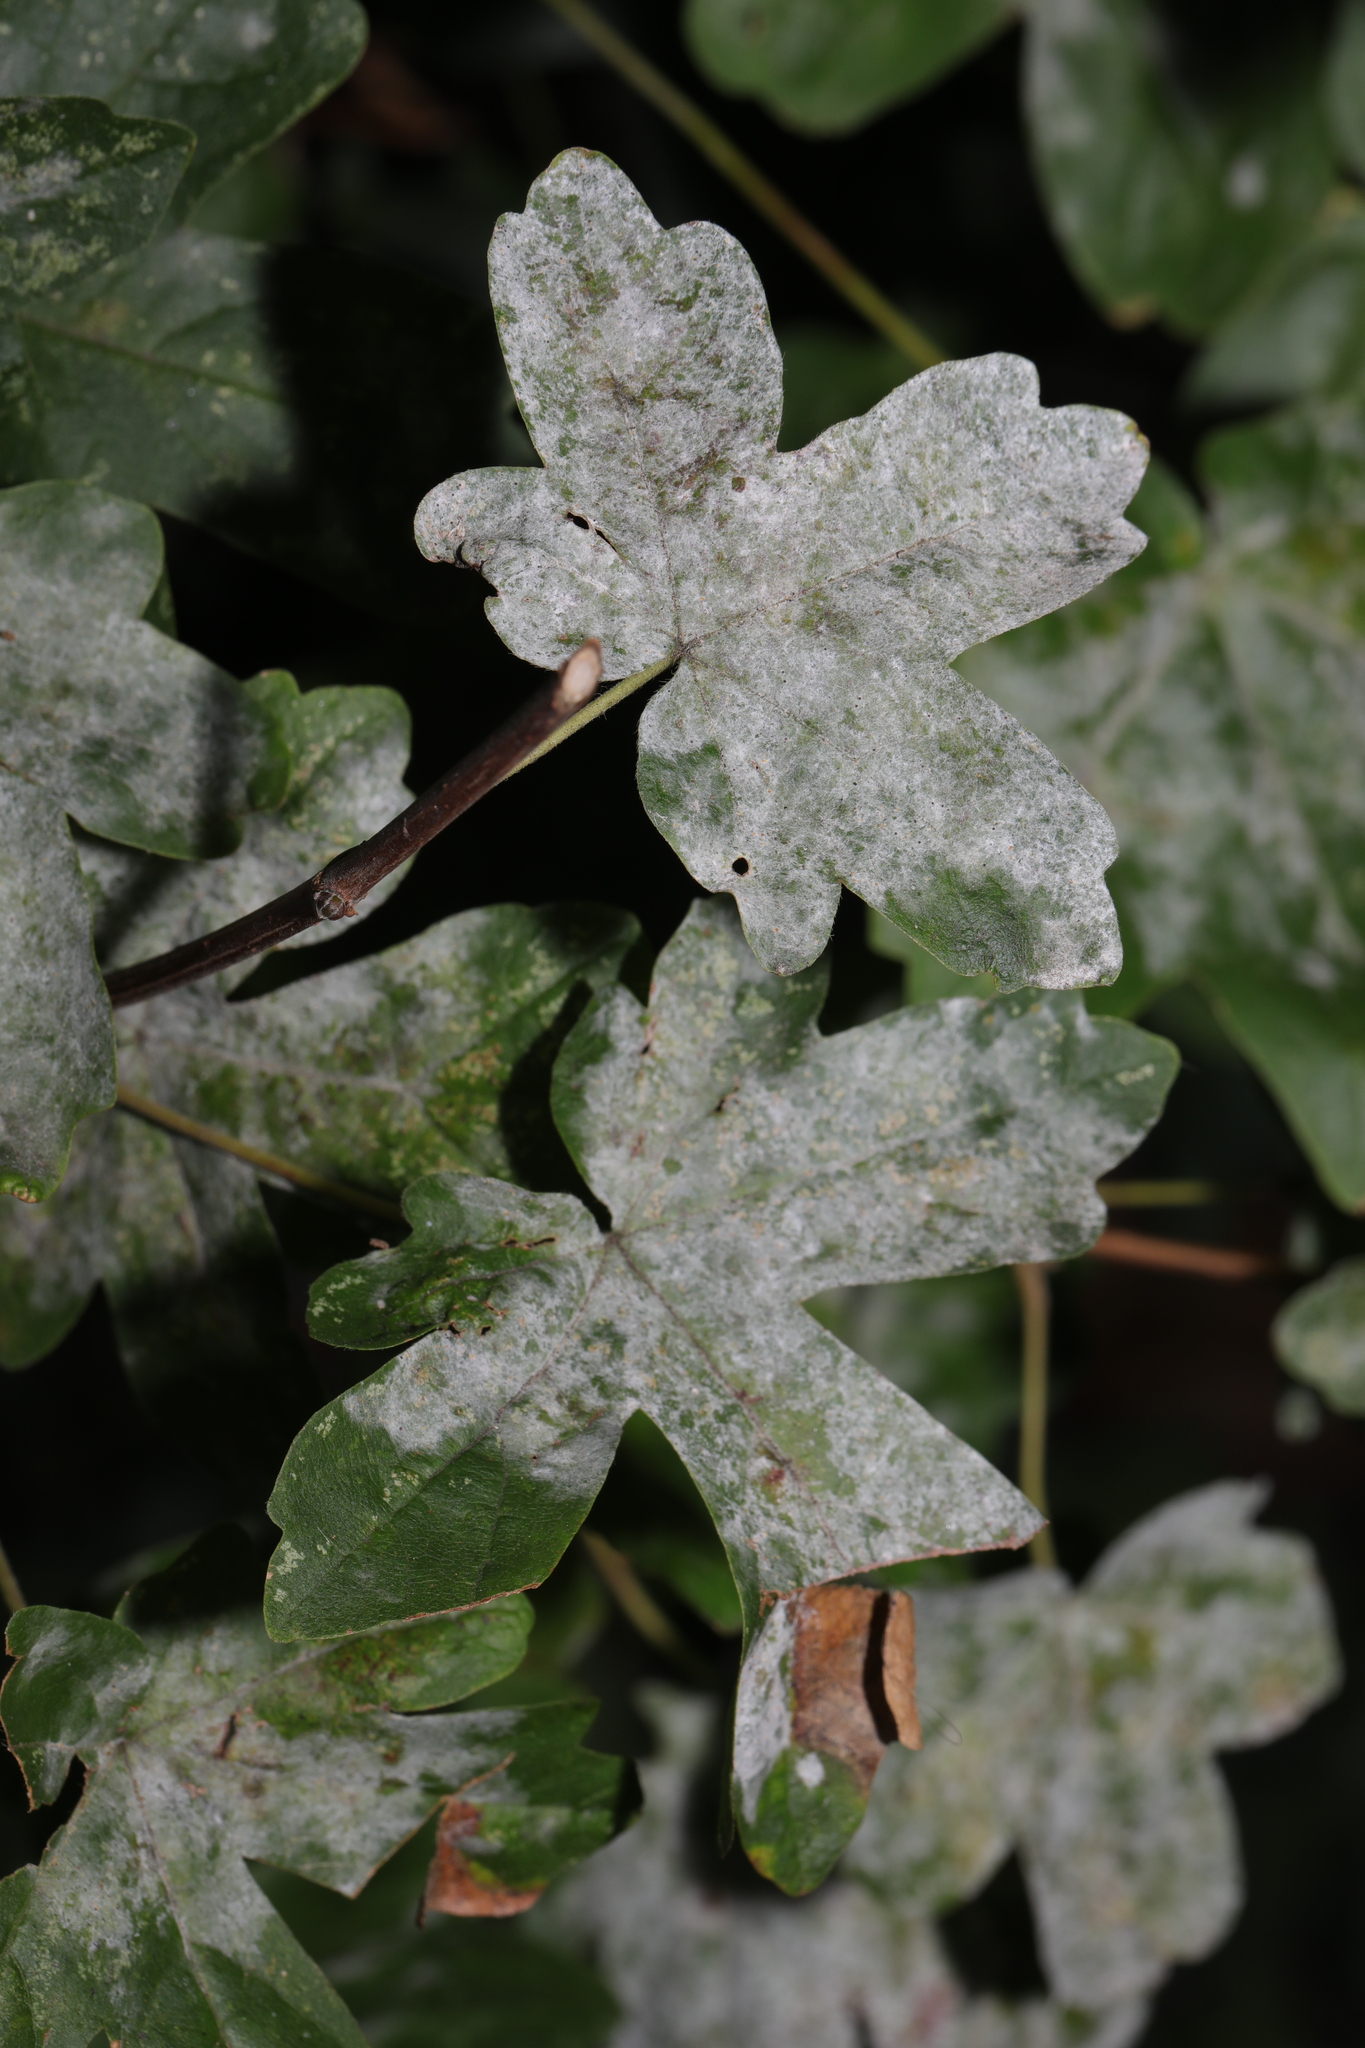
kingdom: Fungi
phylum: Ascomycota
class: Leotiomycetes
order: Helotiales
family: Erysiphaceae
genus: Sawadaea
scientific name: Sawadaea bicornis
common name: Maple mildew
